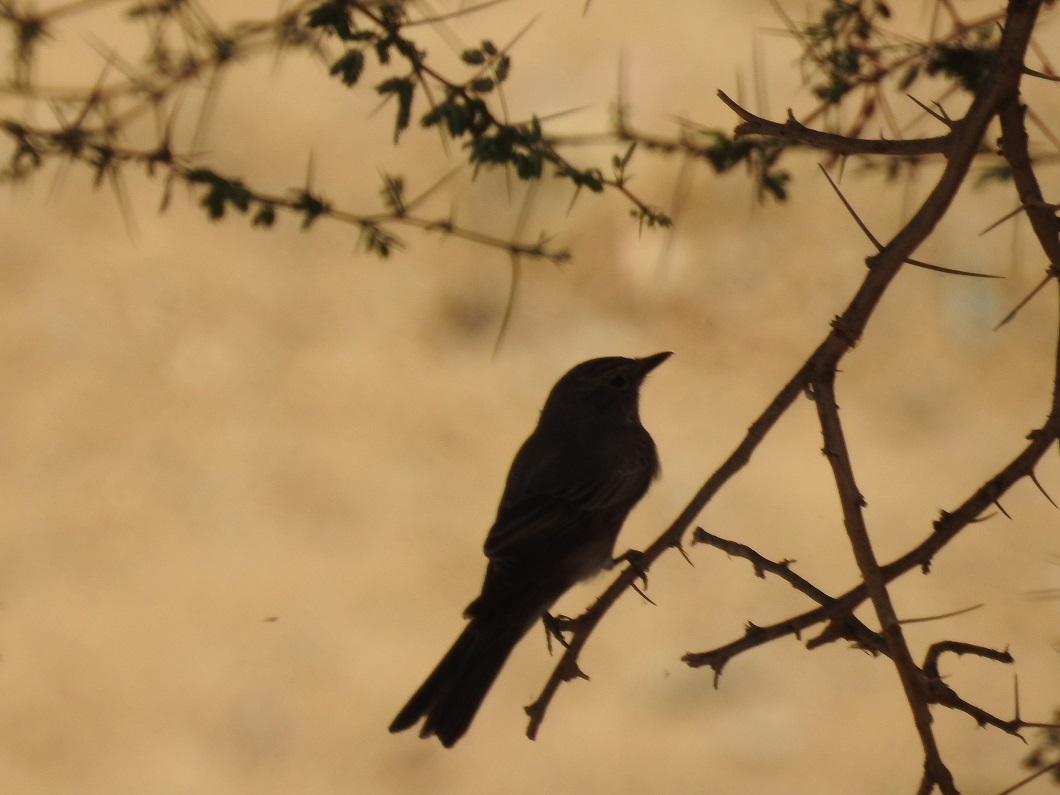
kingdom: Animalia
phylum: Chordata
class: Aves
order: Passeriformes
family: Muscicapidae
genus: Muscicapa
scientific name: Muscicapa striata
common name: Spotted flycatcher
